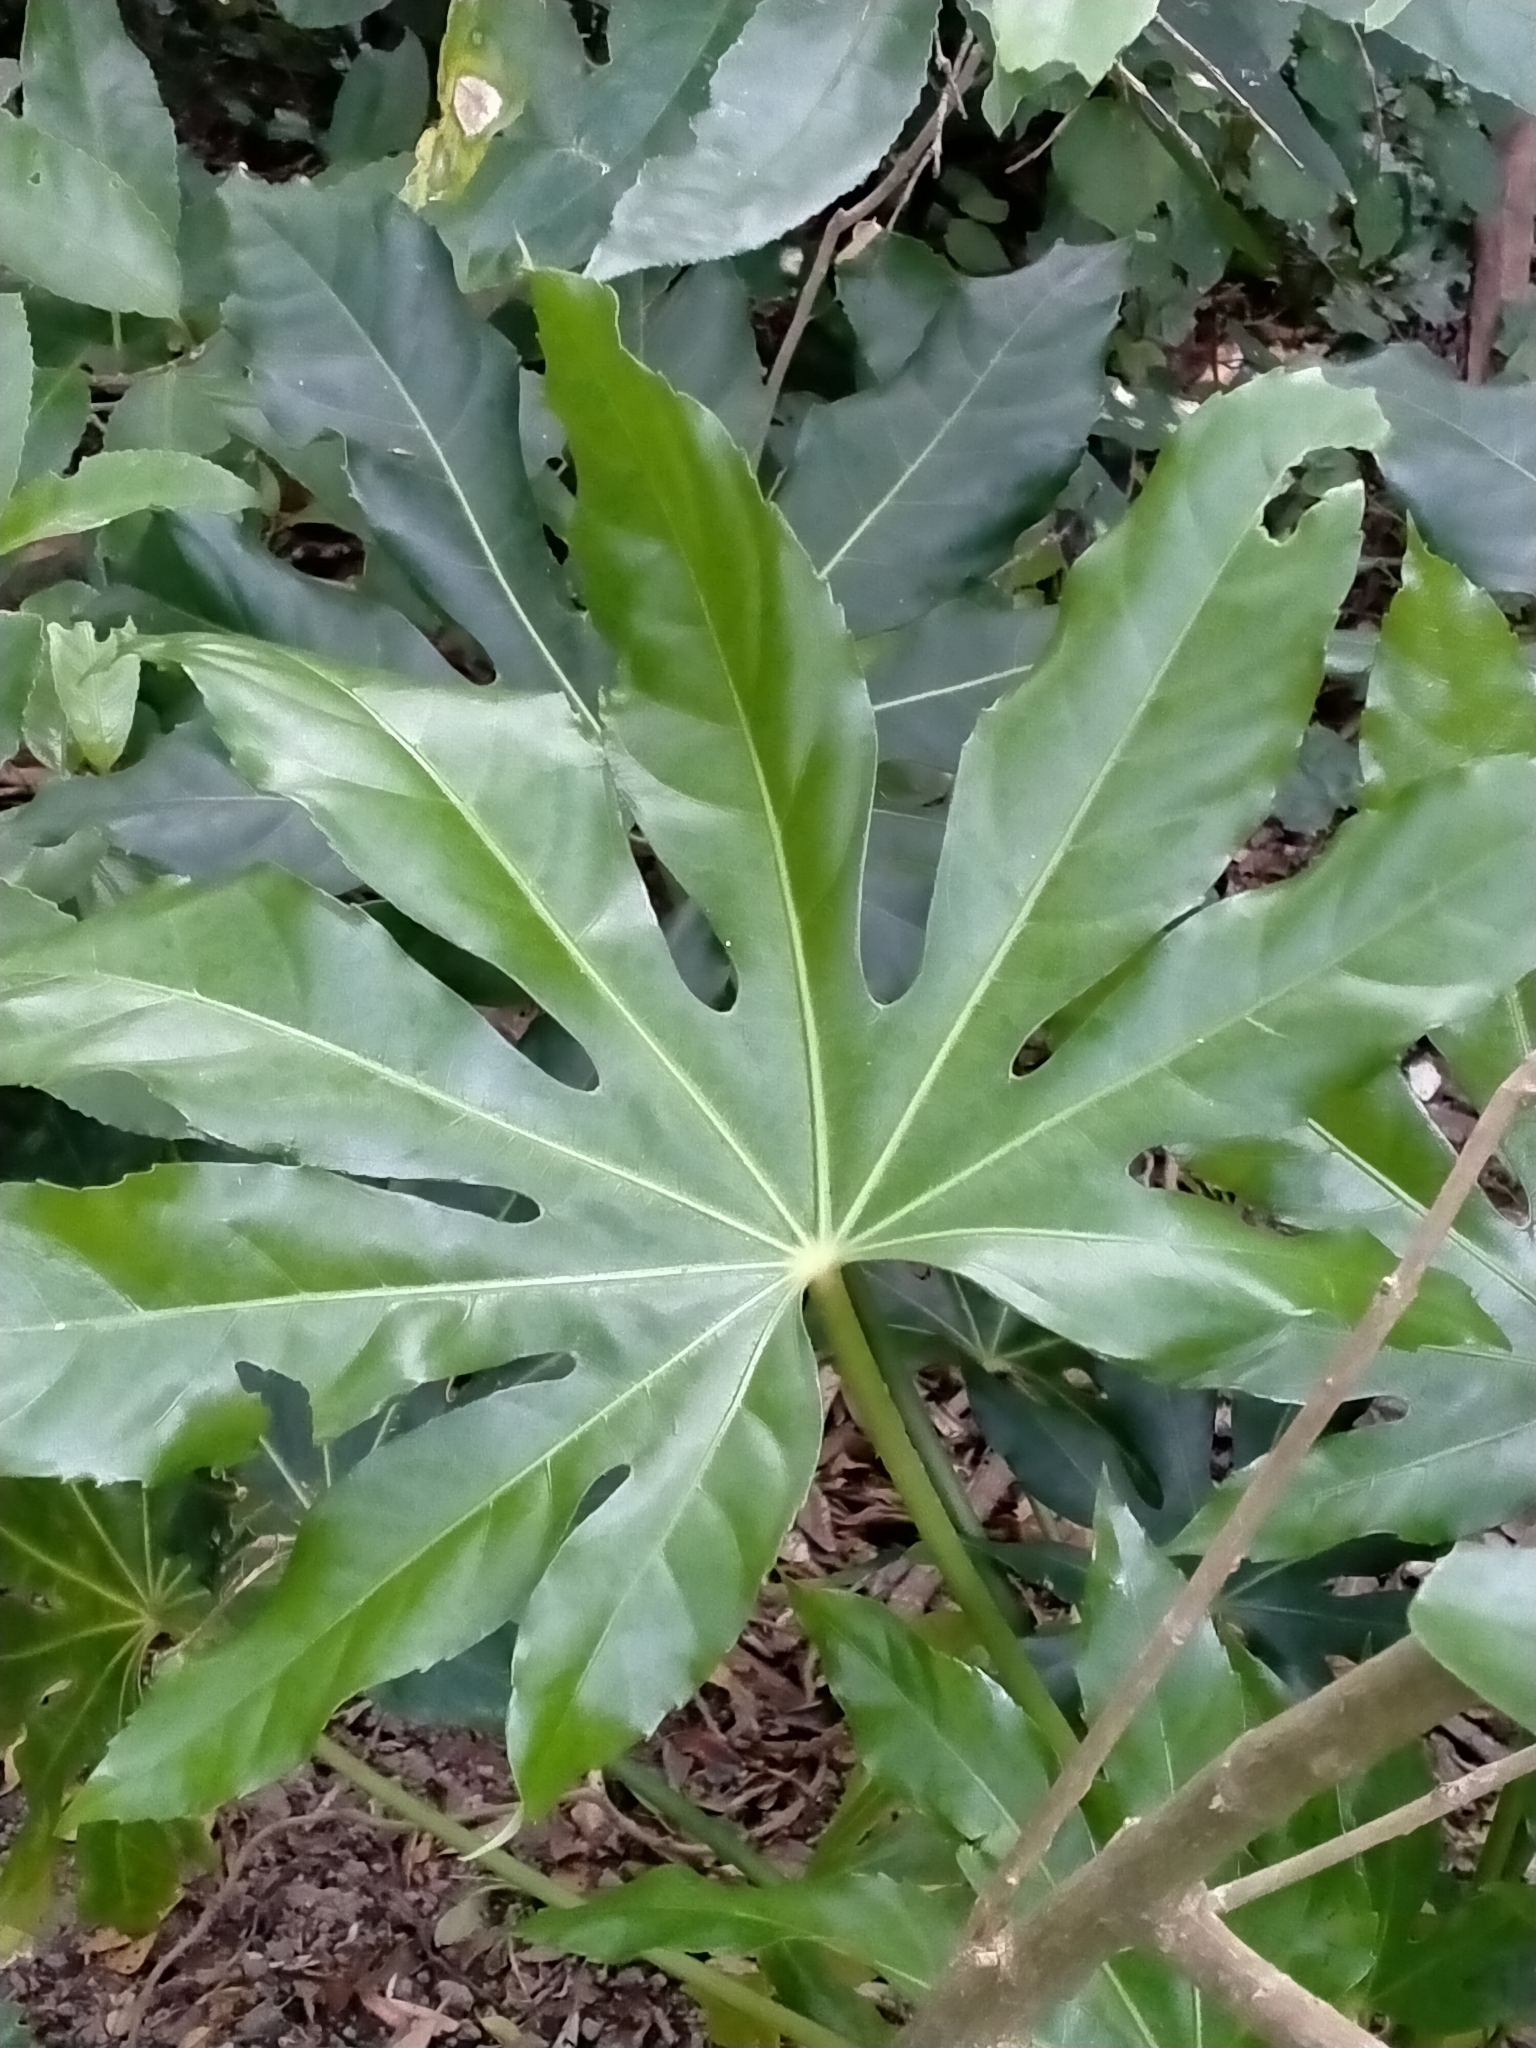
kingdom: Plantae
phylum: Tracheophyta
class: Magnoliopsida
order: Apiales
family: Araliaceae
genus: Fatsia
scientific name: Fatsia japonica
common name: Fatsia
